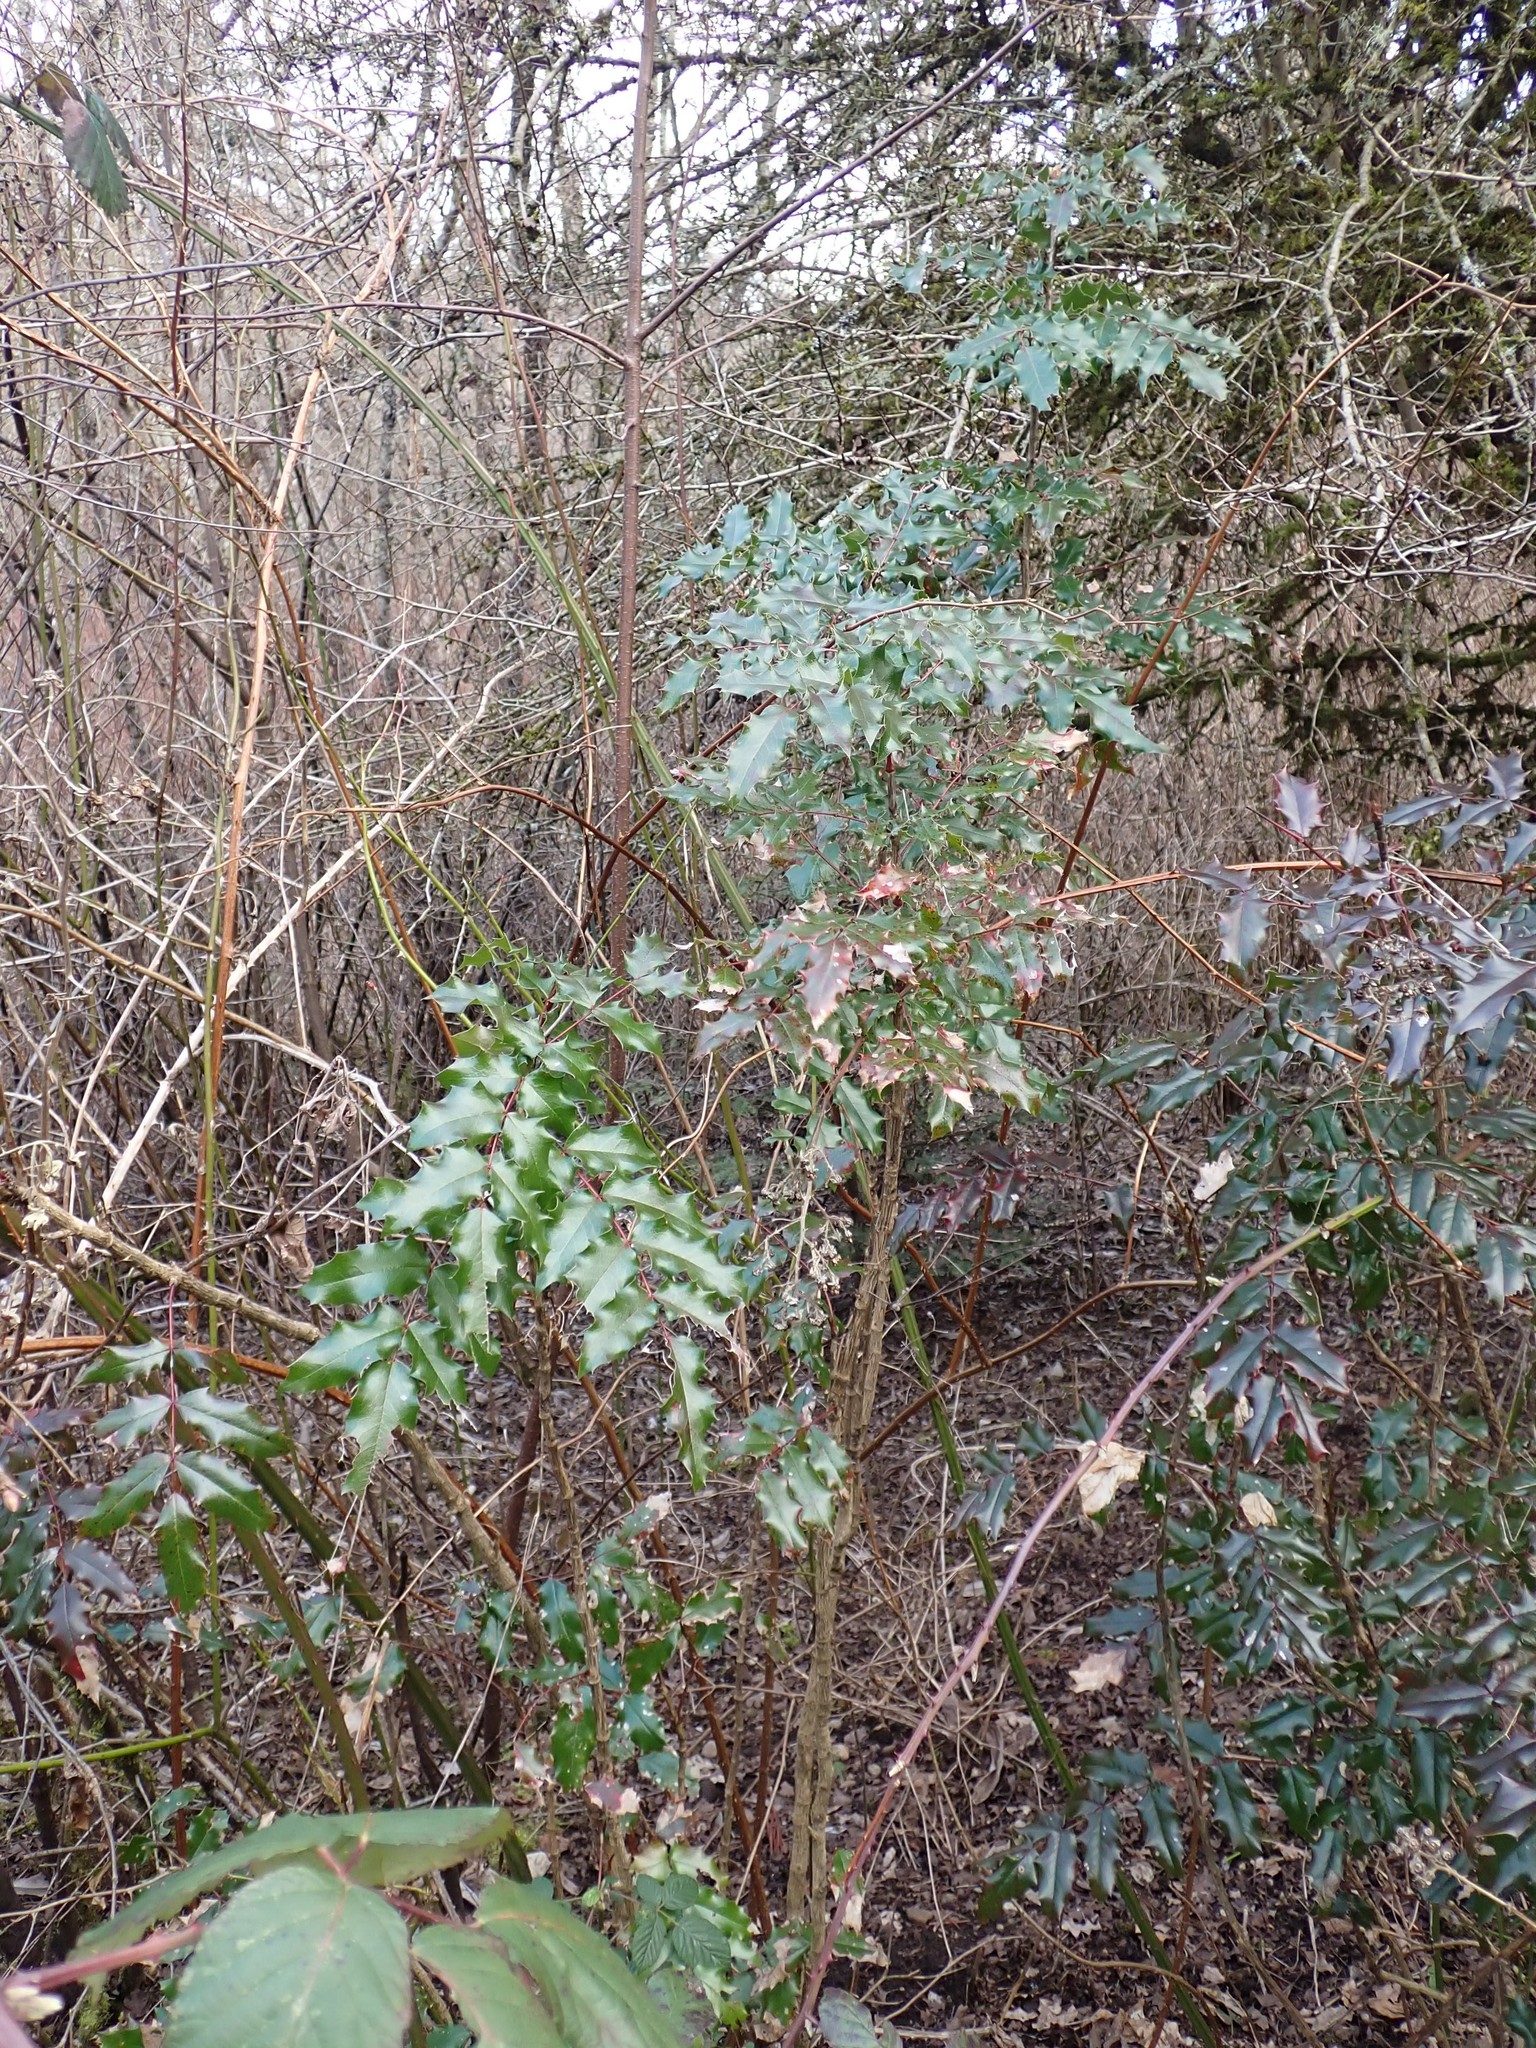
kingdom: Plantae
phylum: Tracheophyta
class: Magnoliopsida
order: Ranunculales
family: Berberidaceae
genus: Mahonia
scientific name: Mahonia aquifolium
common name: Oregon-grape
